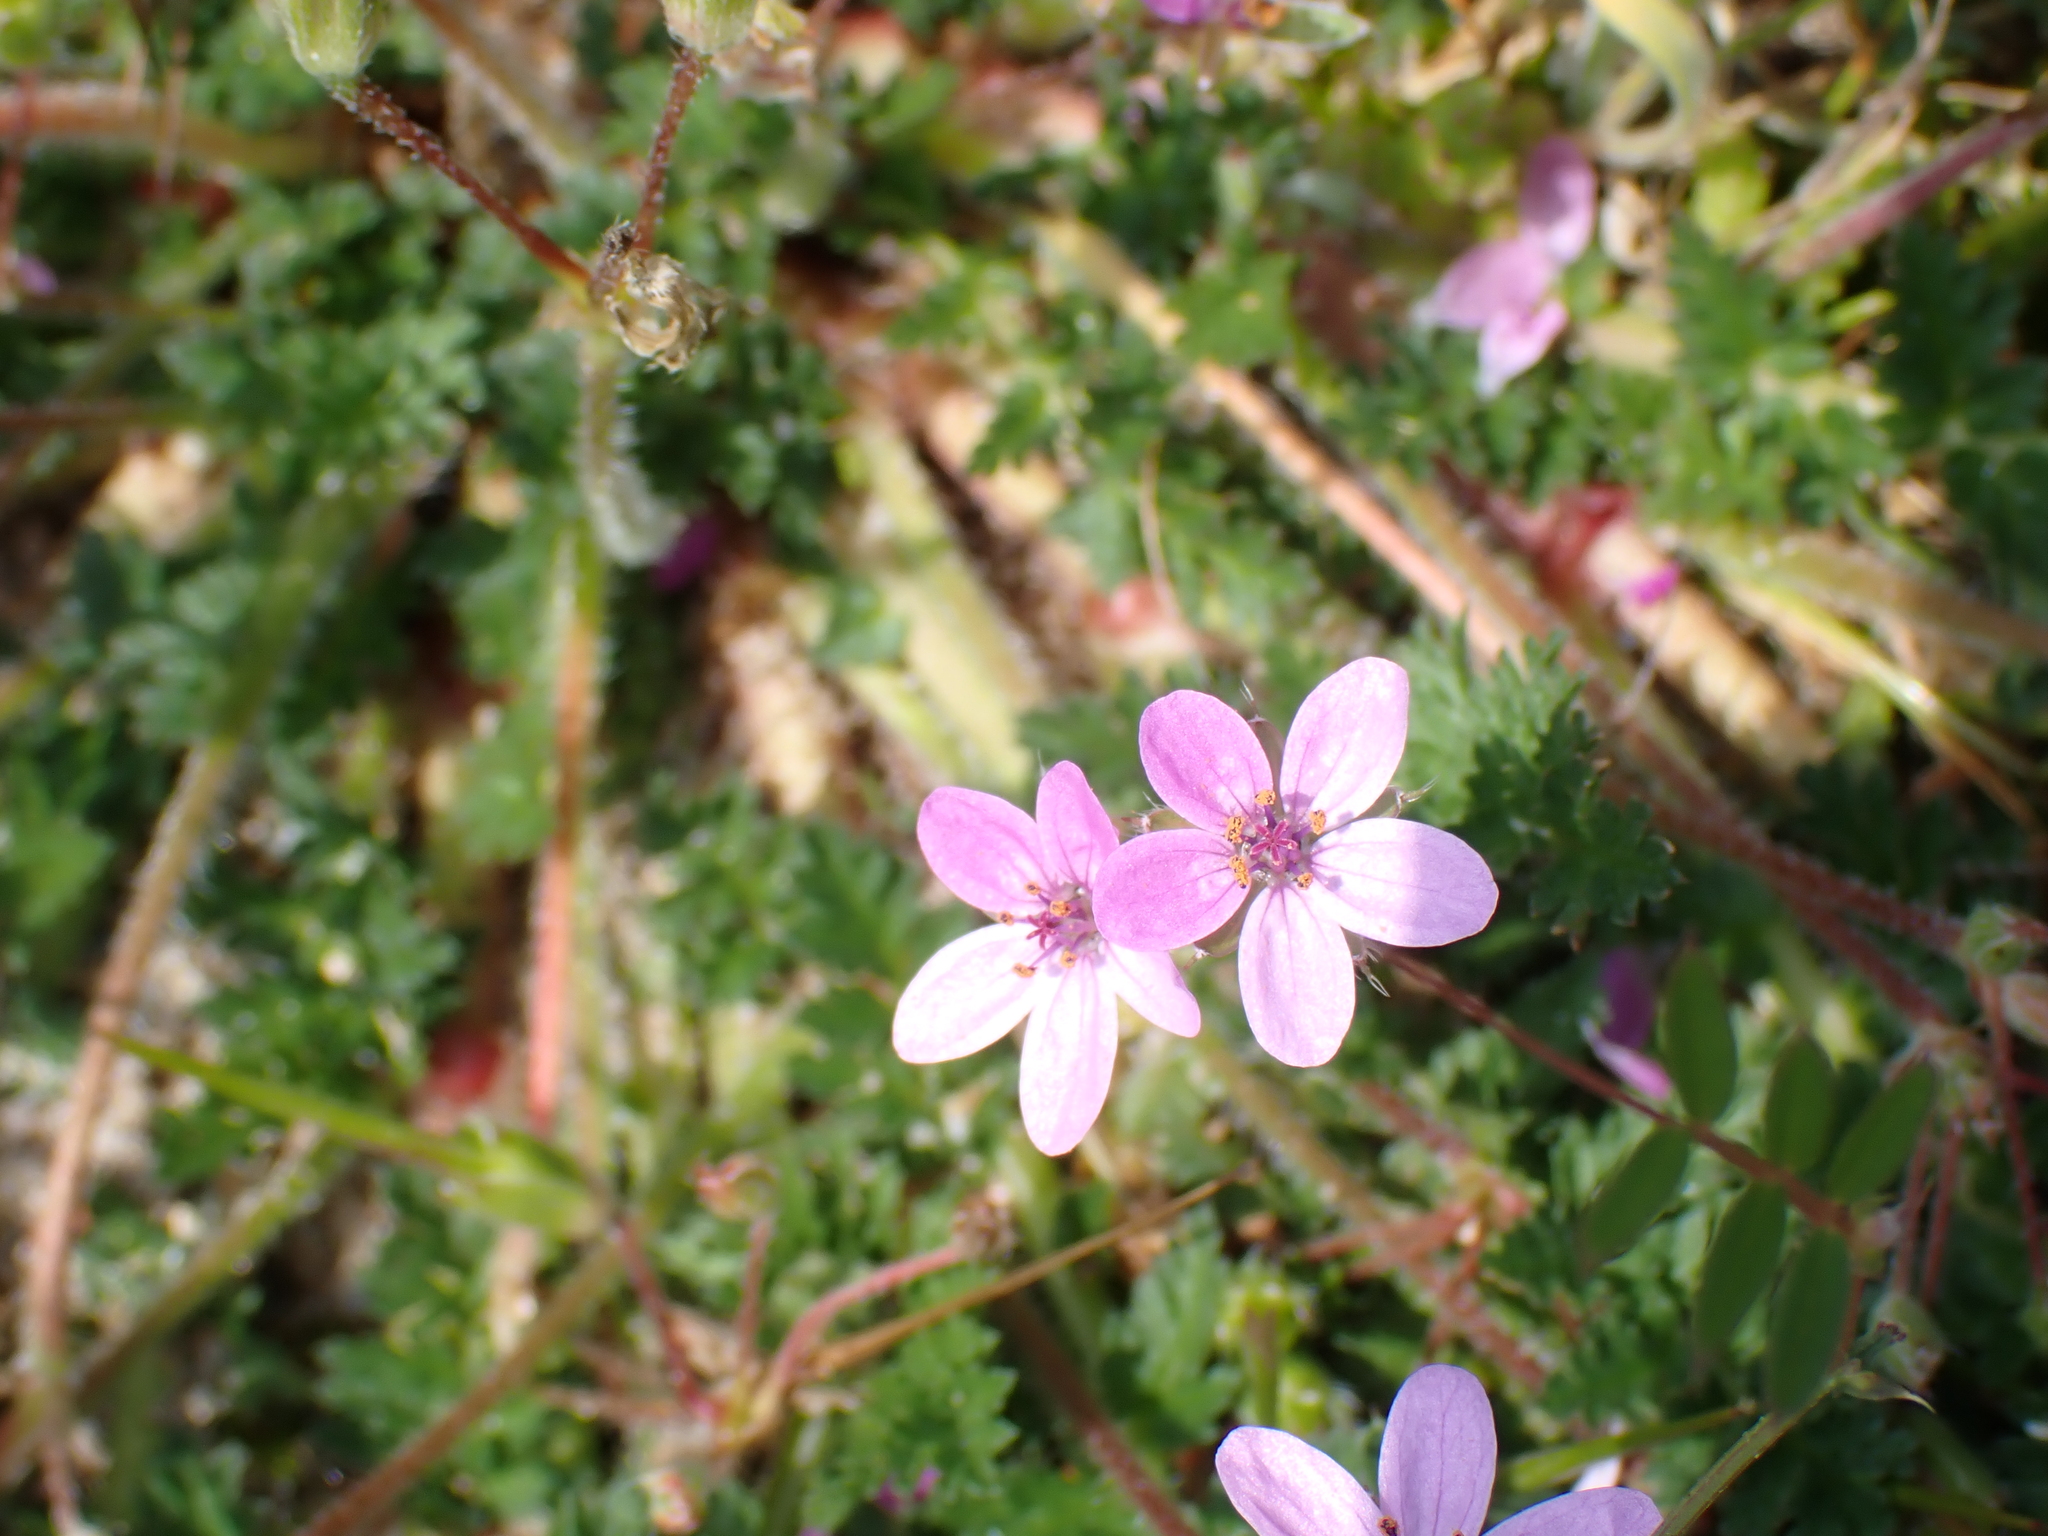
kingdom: Plantae
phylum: Tracheophyta
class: Magnoliopsida
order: Geraniales
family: Geraniaceae
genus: Erodium
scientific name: Erodium cicutarium
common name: Common stork's-bill
